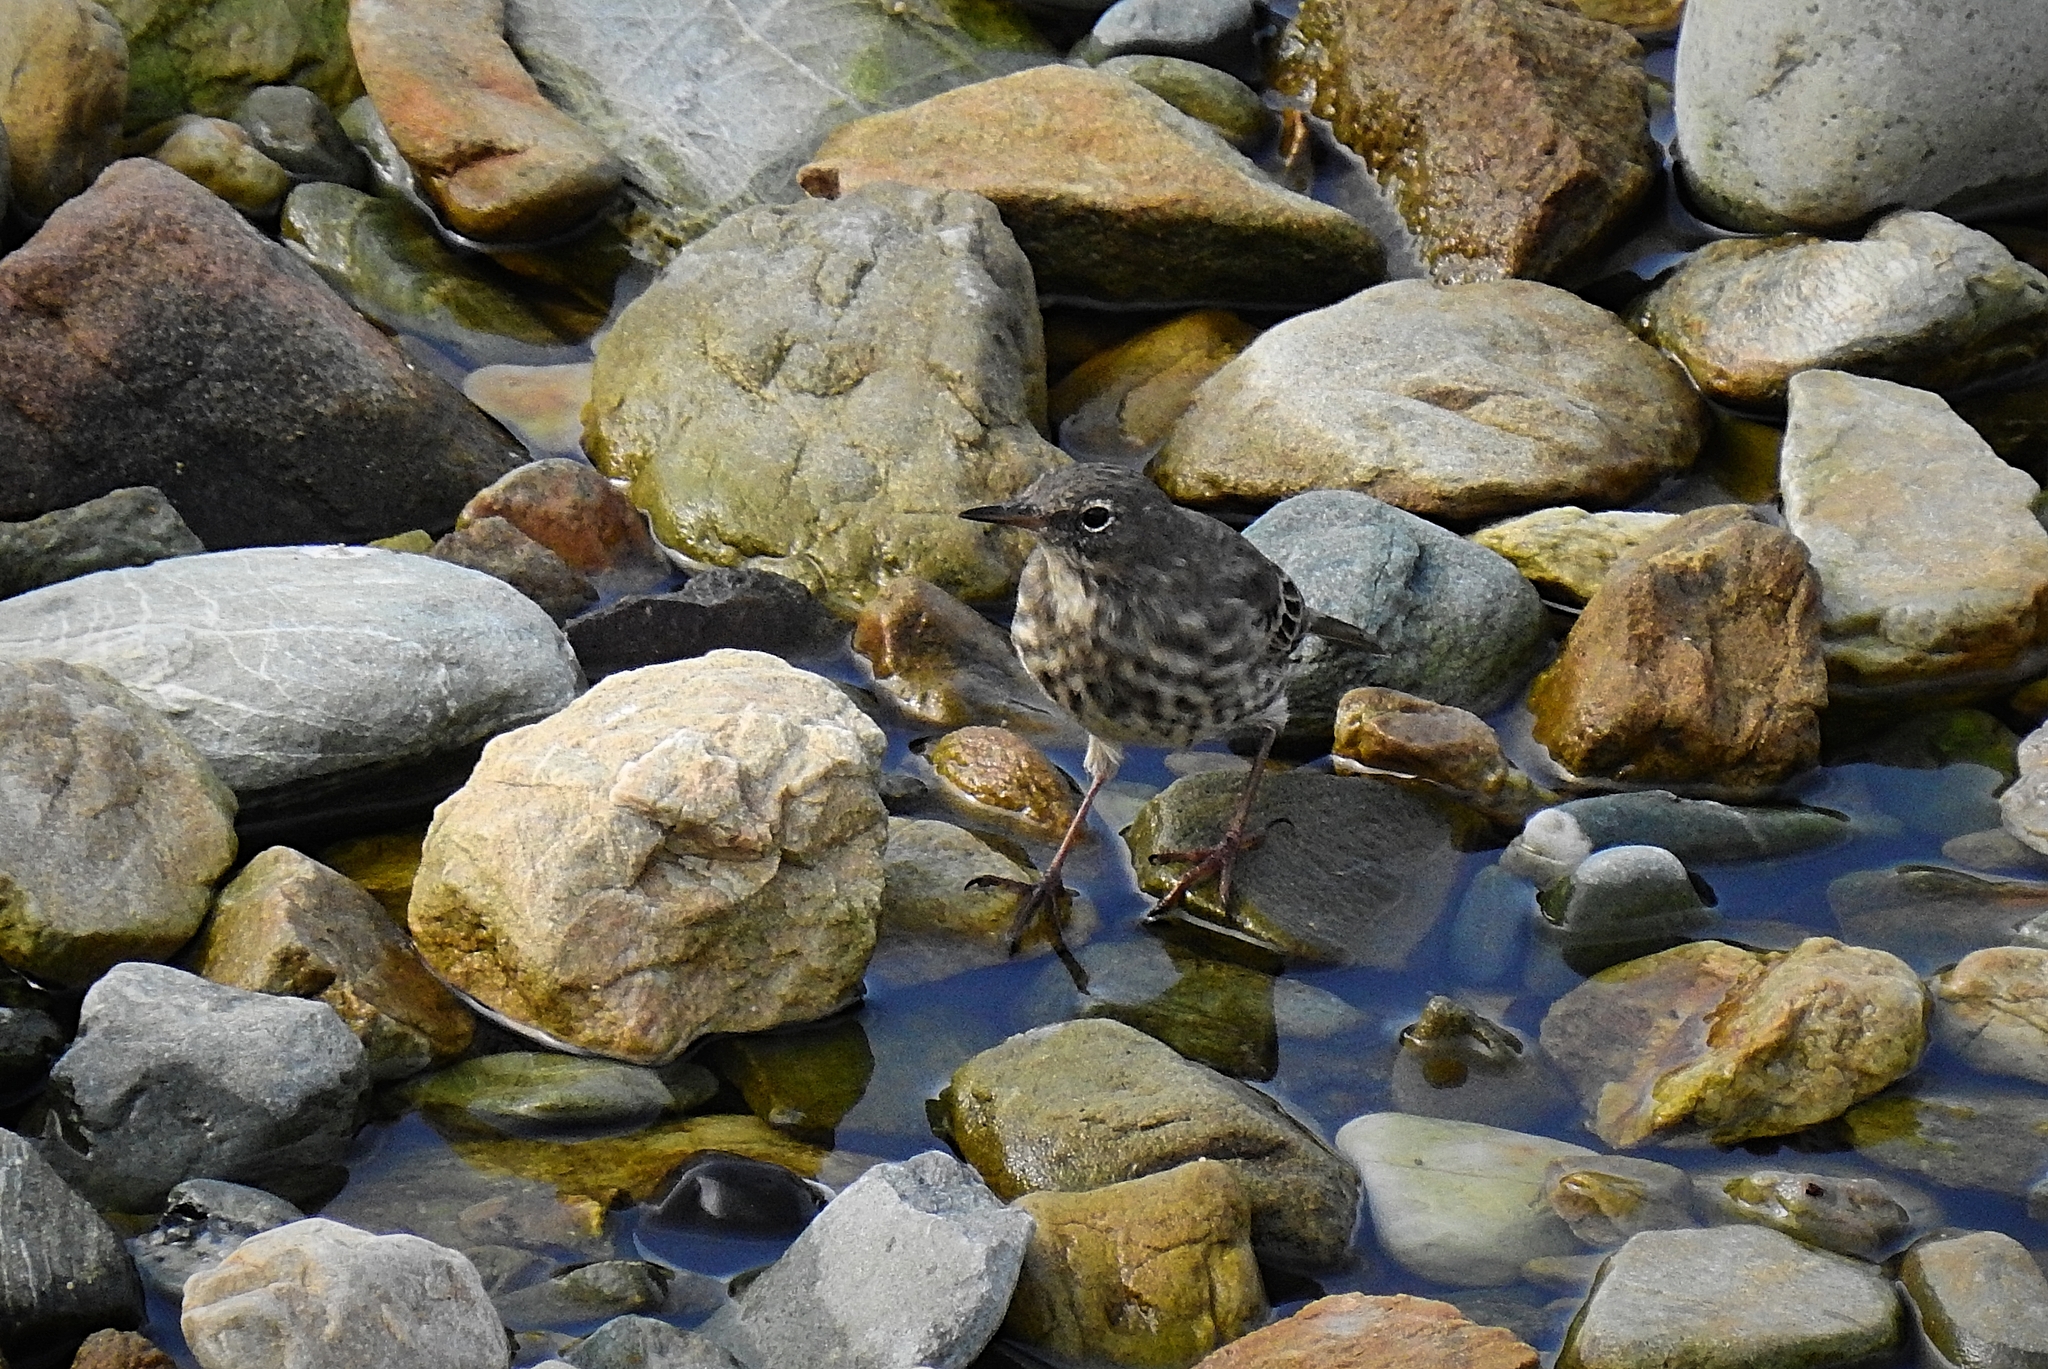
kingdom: Animalia
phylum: Chordata
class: Aves
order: Passeriformes
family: Motacillidae
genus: Anthus
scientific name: Anthus petrosus
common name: Eurasian rock pipit
